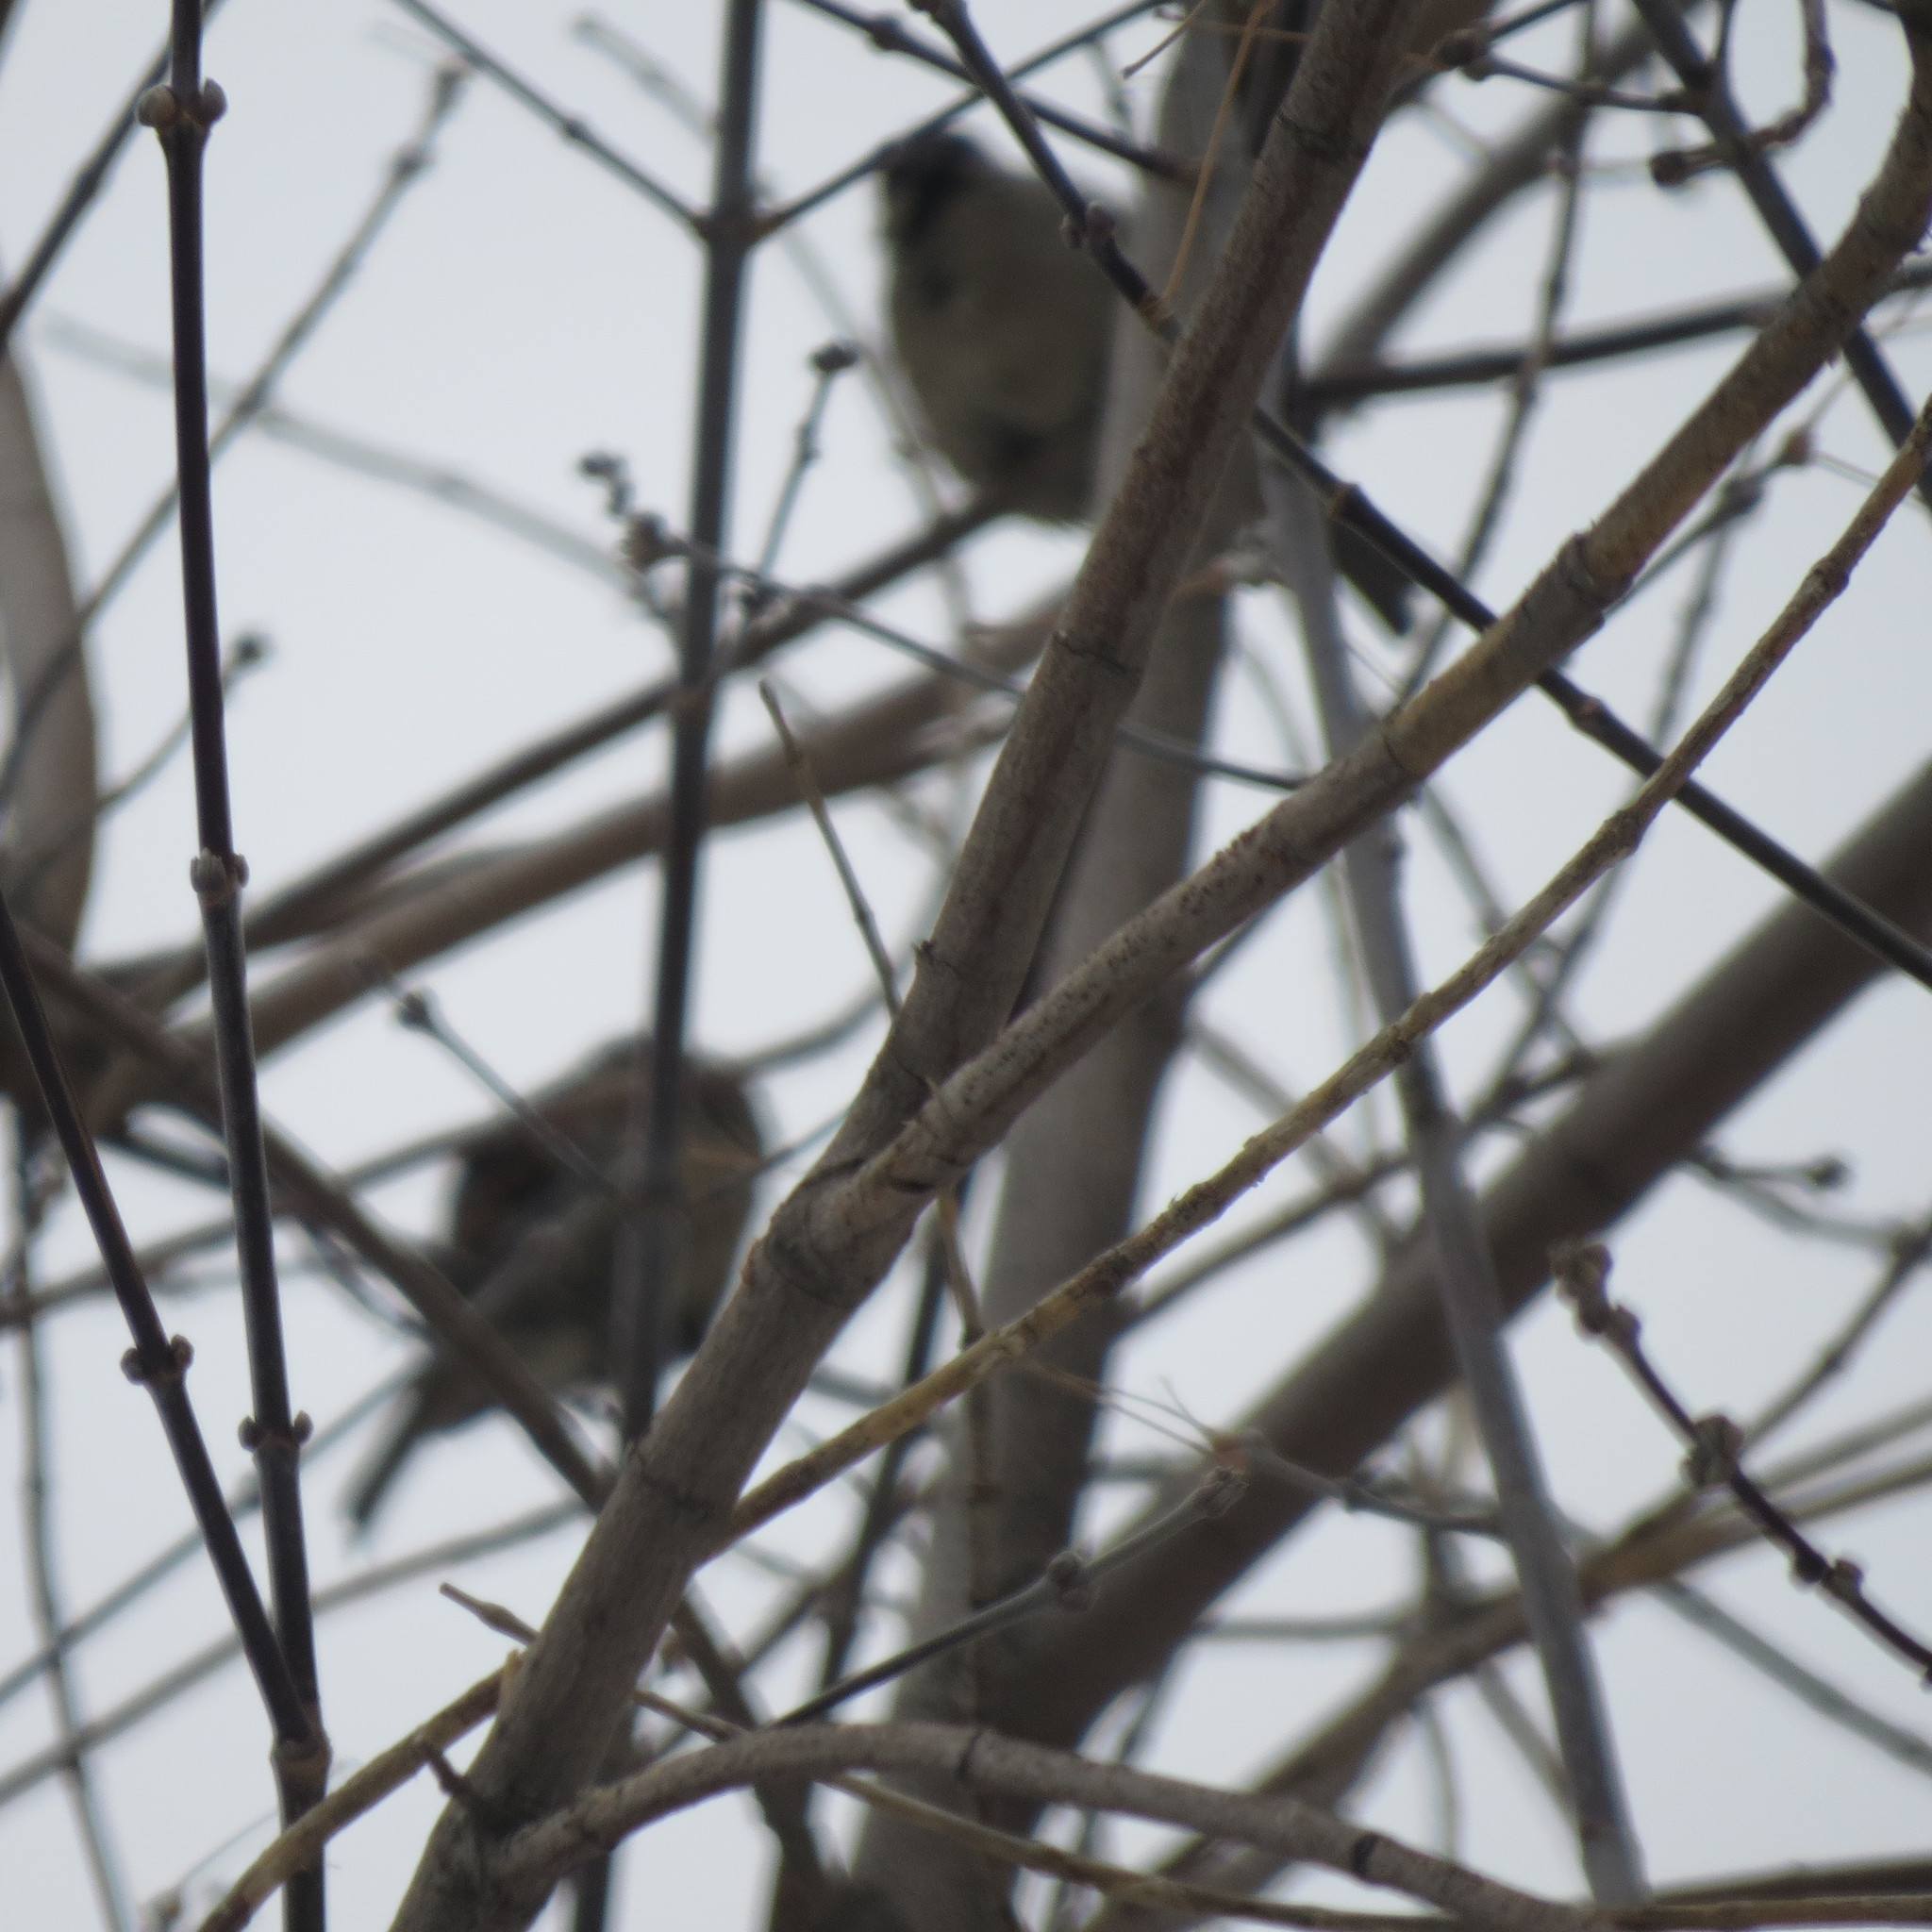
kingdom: Animalia
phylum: Chordata
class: Aves
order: Passeriformes
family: Passeridae
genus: Passer
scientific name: Passer domesticus
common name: House sparrow
